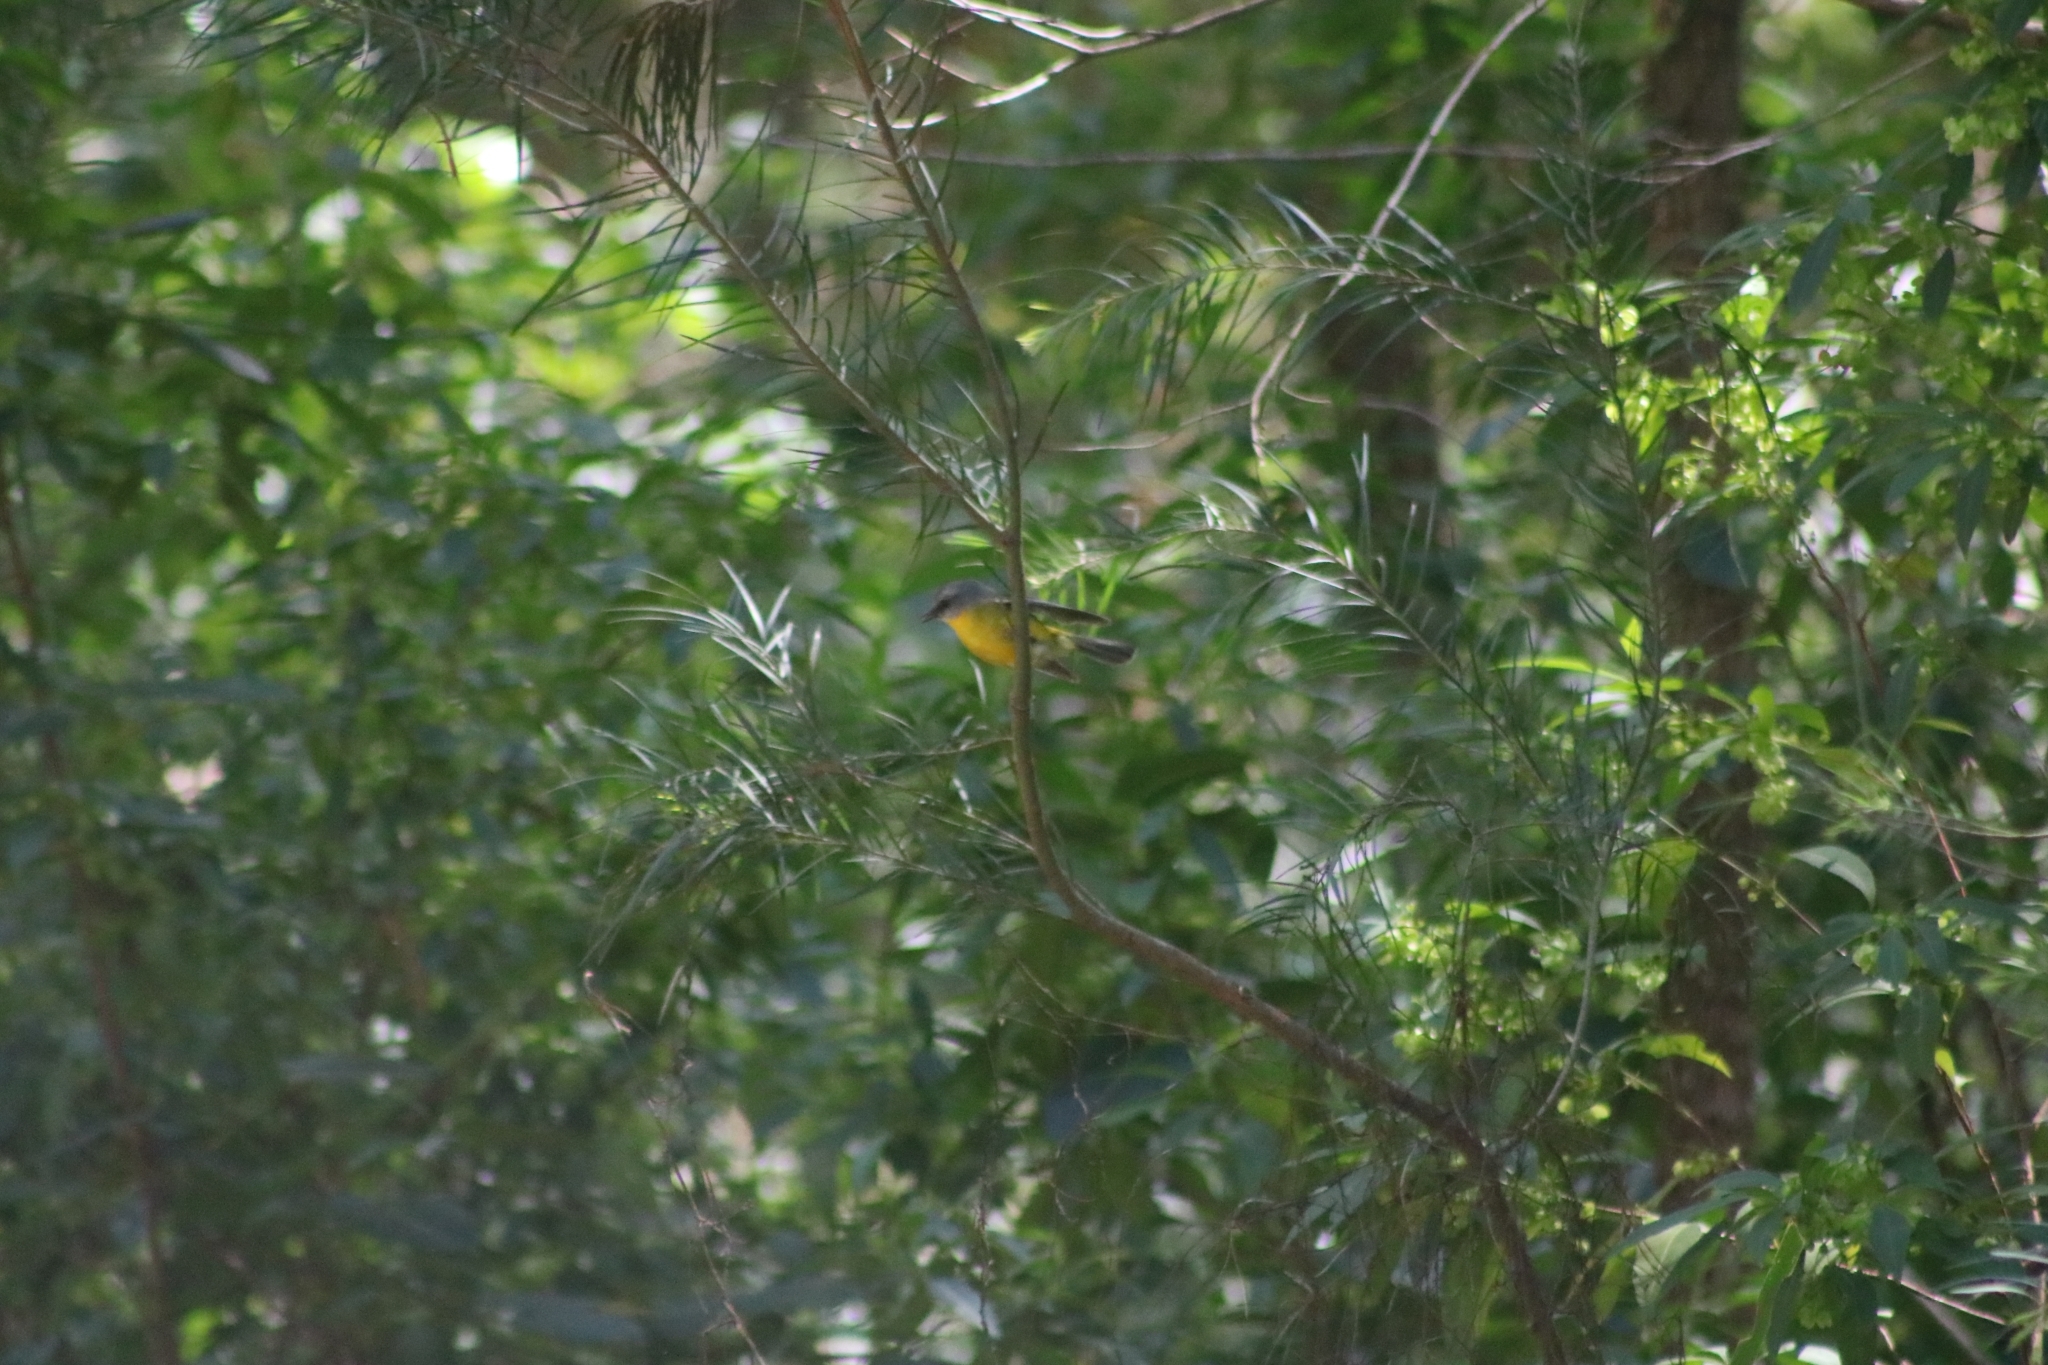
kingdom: Animalia
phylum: Chordata
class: Aves
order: Passeriformes
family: Petroicidae
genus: Eopsaltria
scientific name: Eopsaltria australis
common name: Eastern yellow robin
